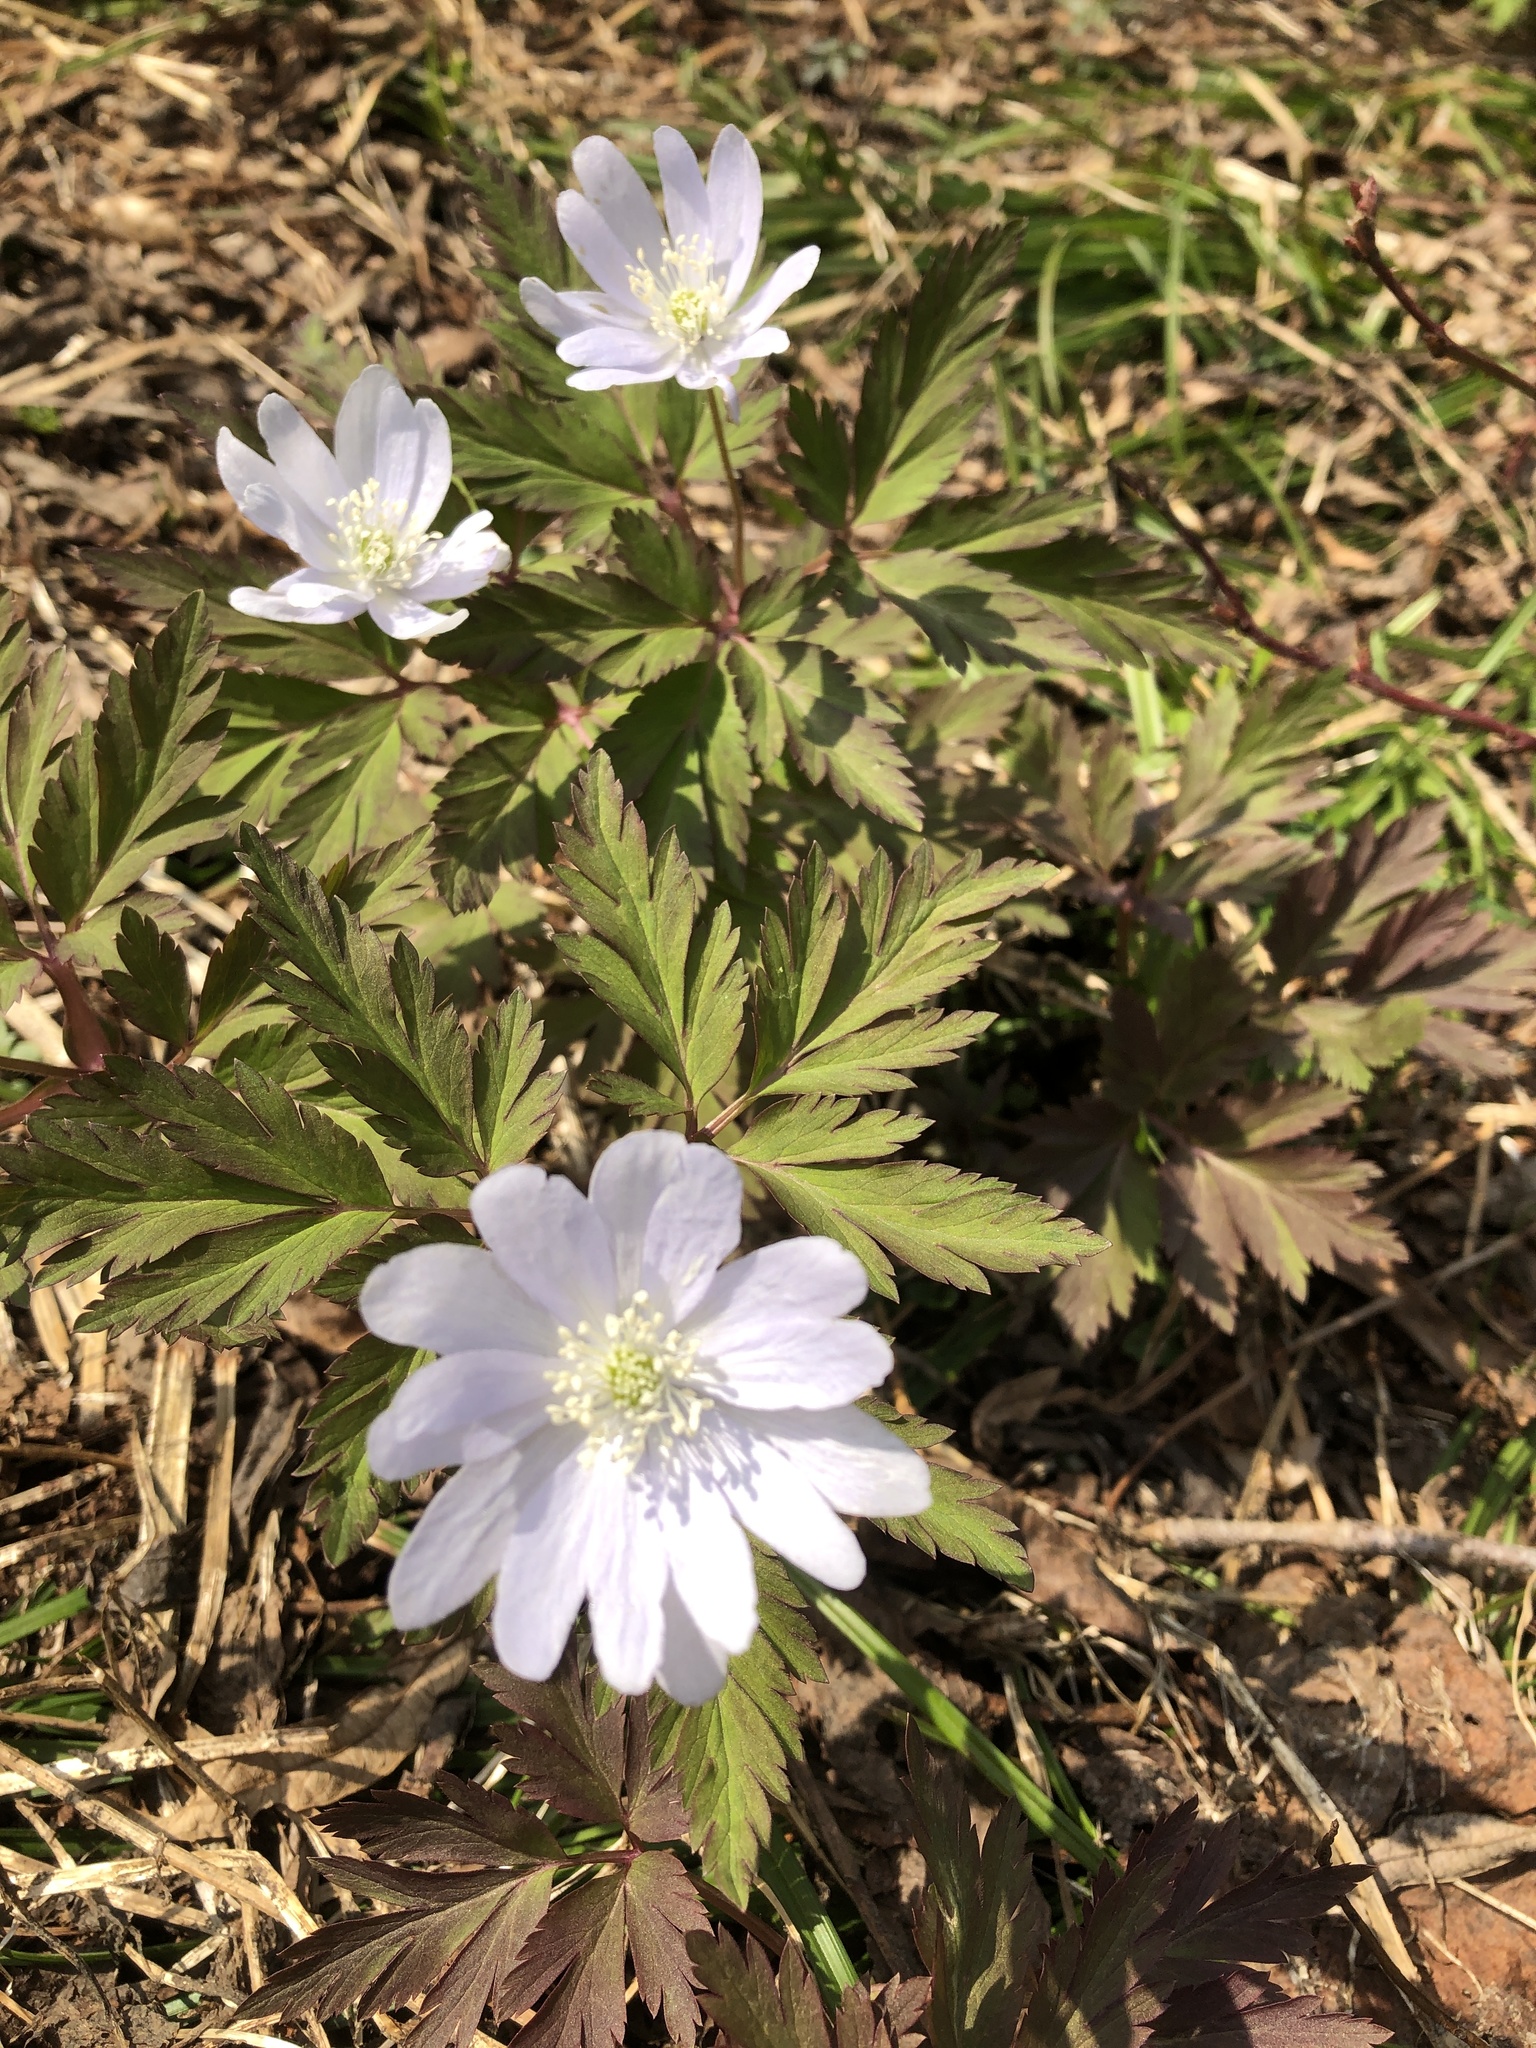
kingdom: Plantae
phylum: Tracheophyta
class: Magnoliopsida
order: Ranunculales
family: Ranunculaceae
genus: Anemone
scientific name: Anemone pseudoaltaica
